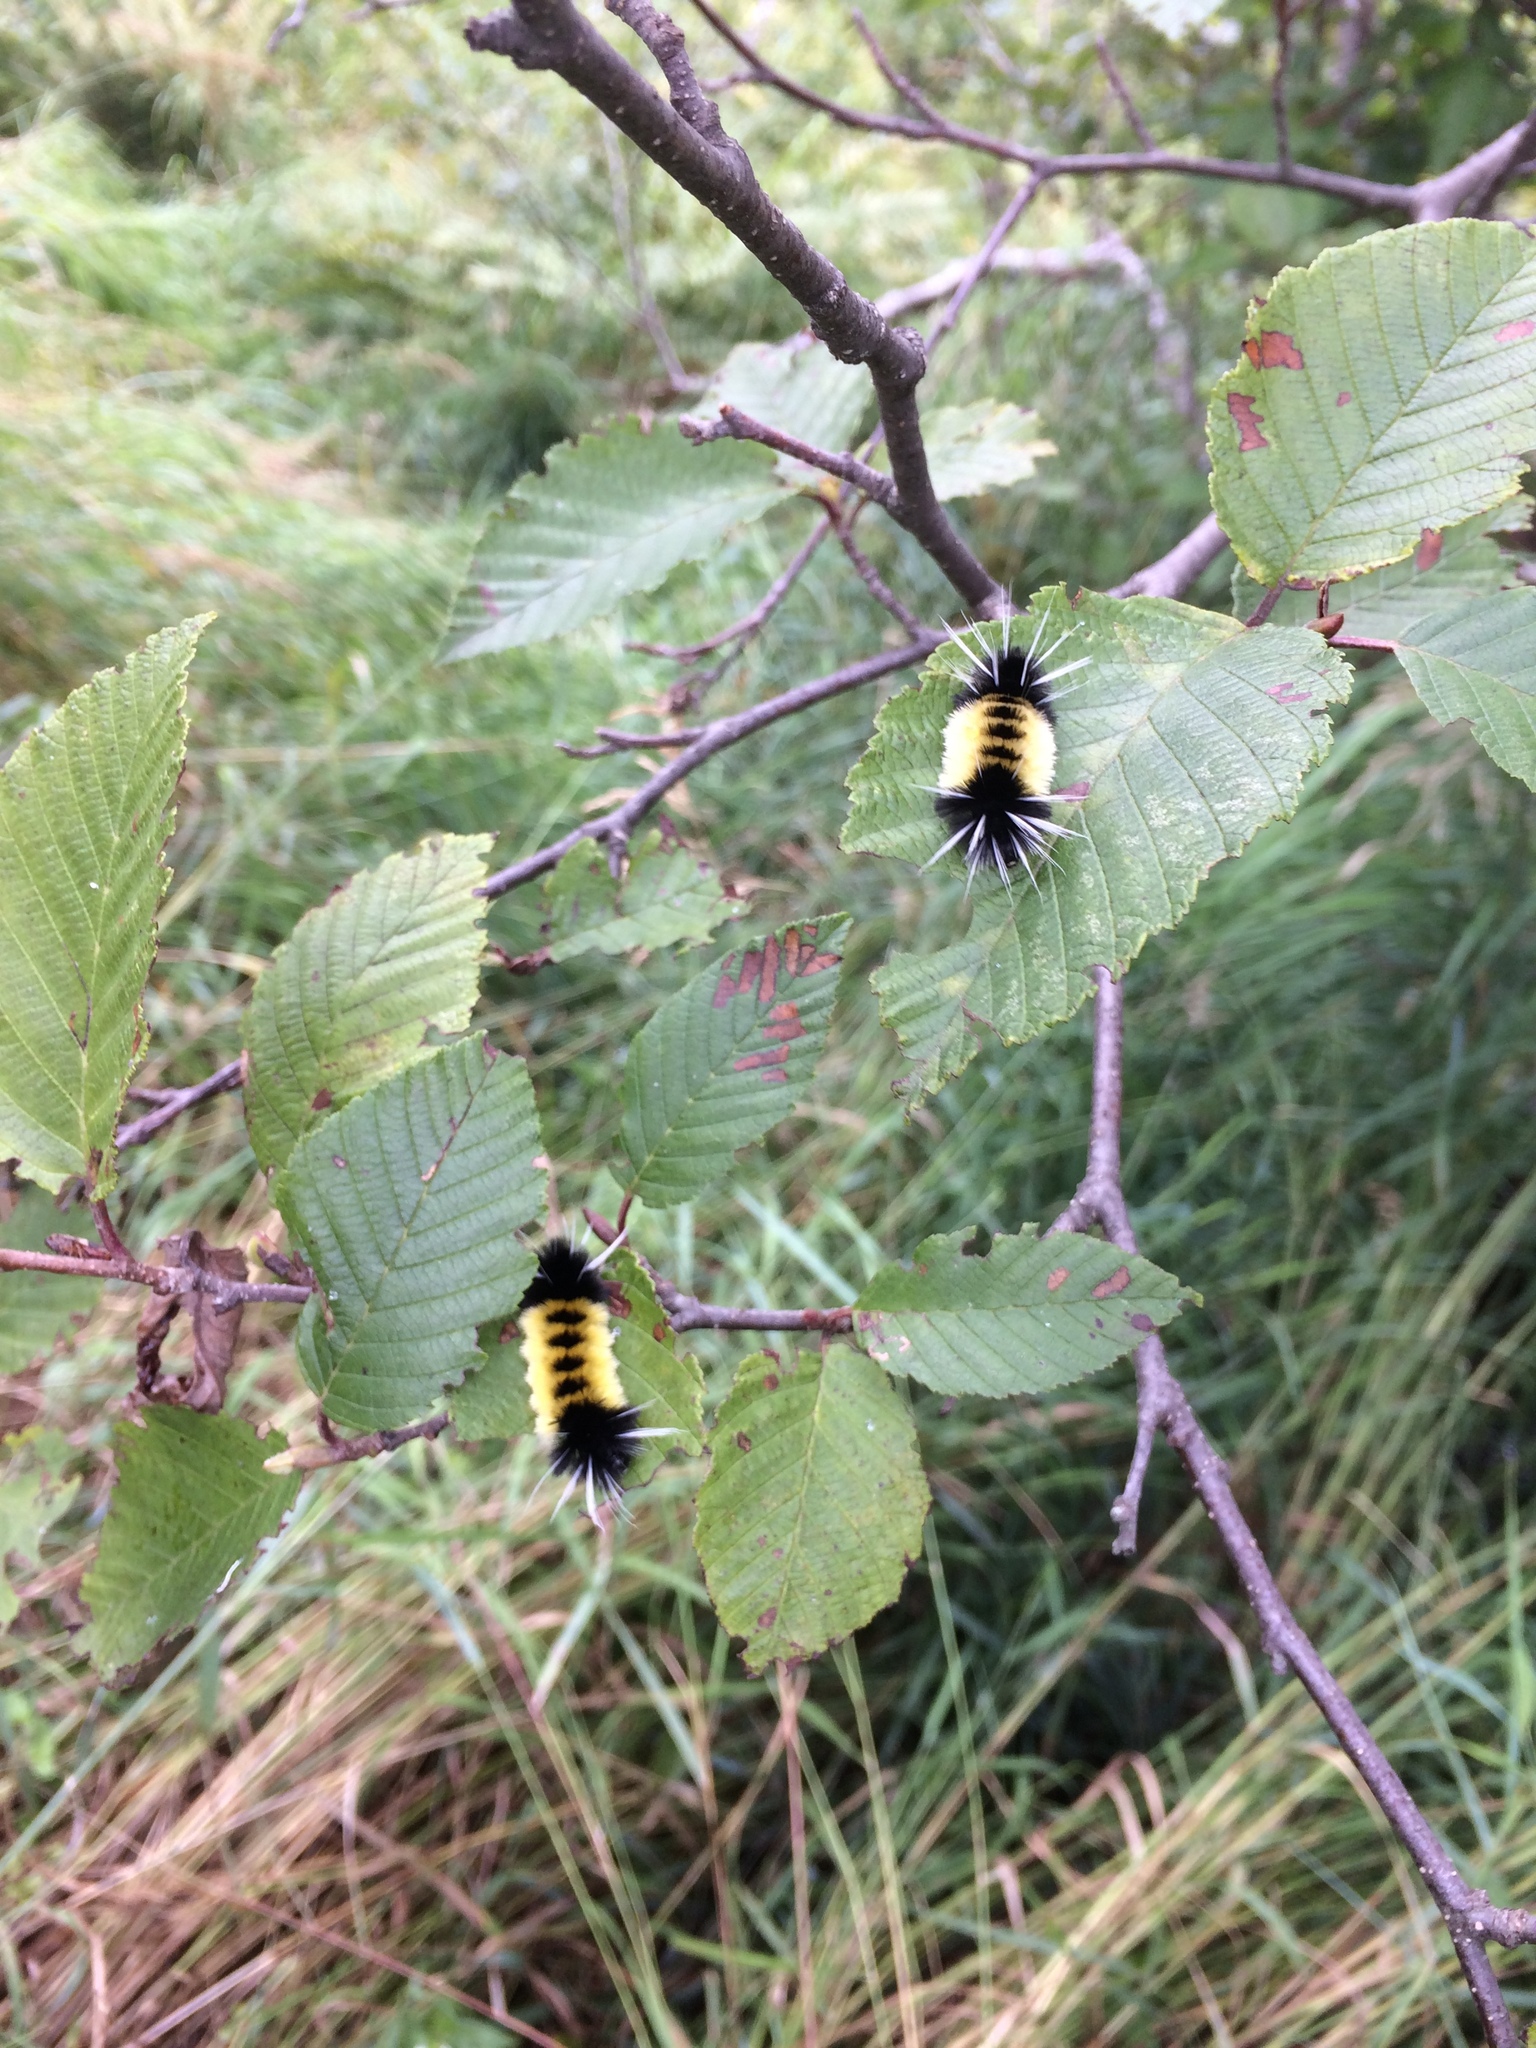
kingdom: Animalia
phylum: Arthropoda
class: Insecta
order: Lepidoptera
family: Erebidae
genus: Lophocampa
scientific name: Lophocampa maculata
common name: Spotted tussock moth
